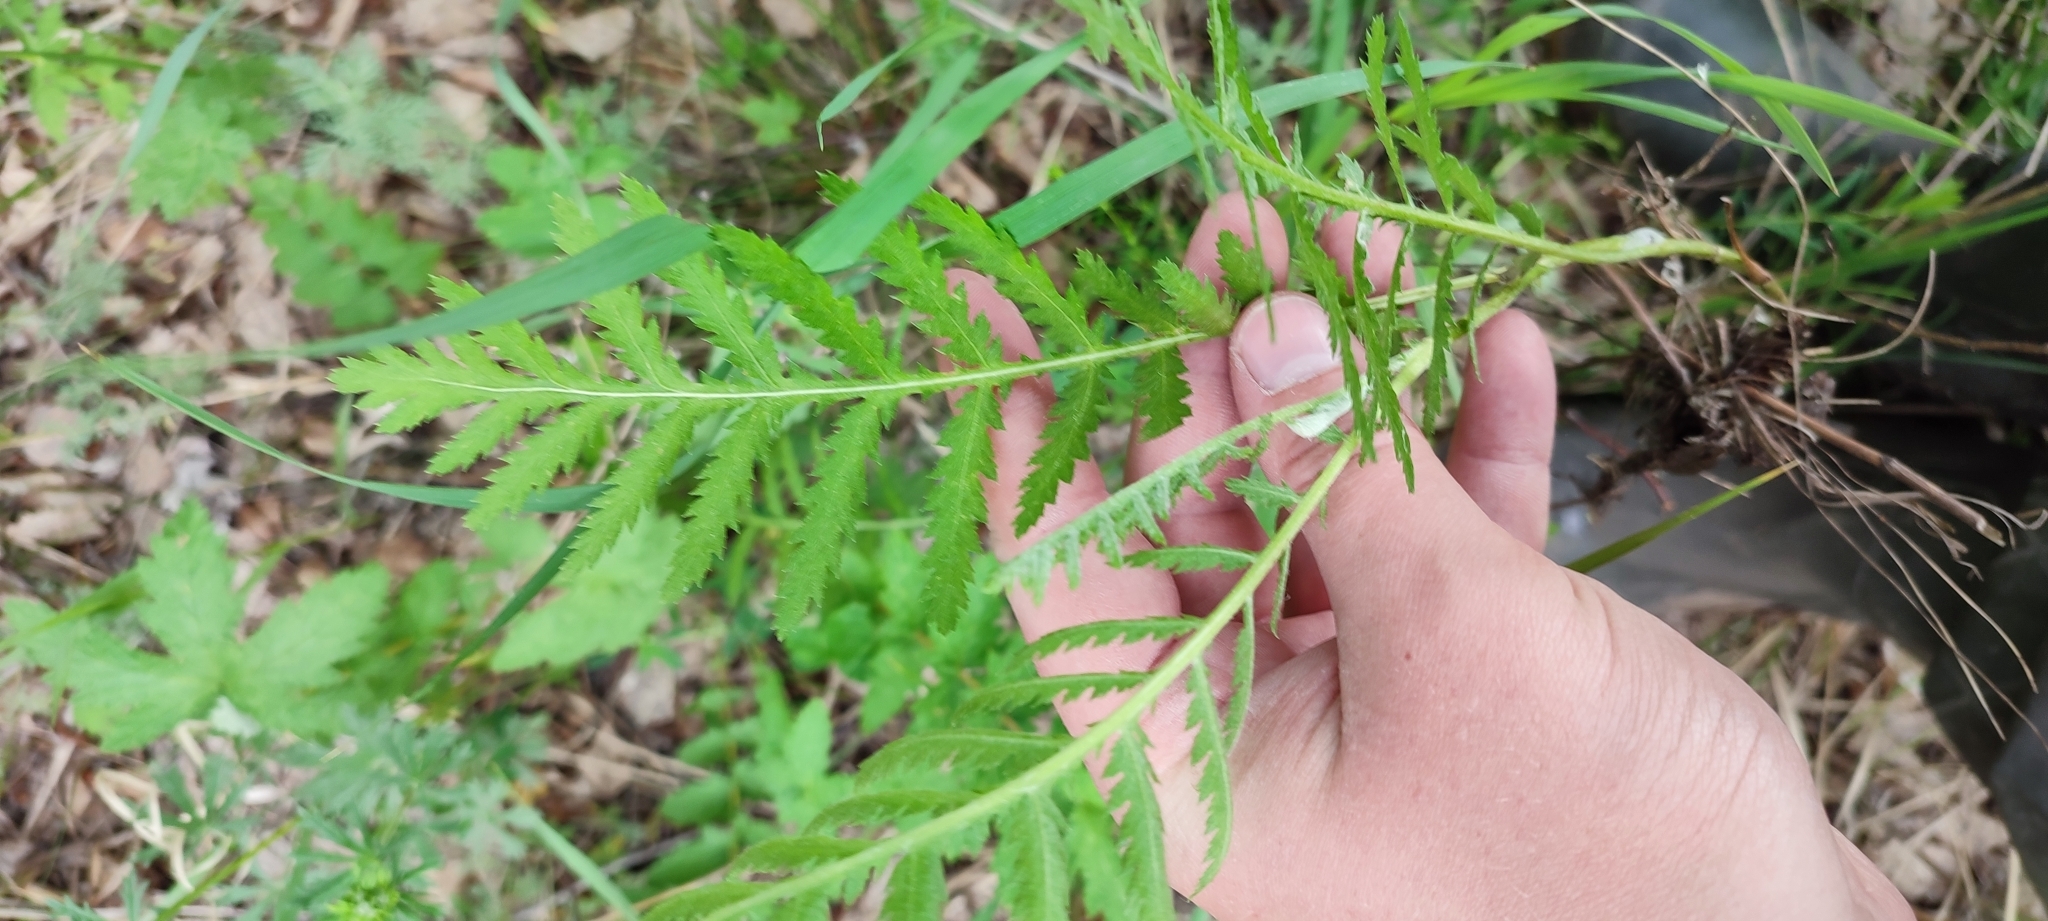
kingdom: Plantae
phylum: Tracheophyta
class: Magnoliopsida
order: Asterales
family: Asteraceae
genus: Tanacetum
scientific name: Tanacetum vulgare
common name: Common tansy
